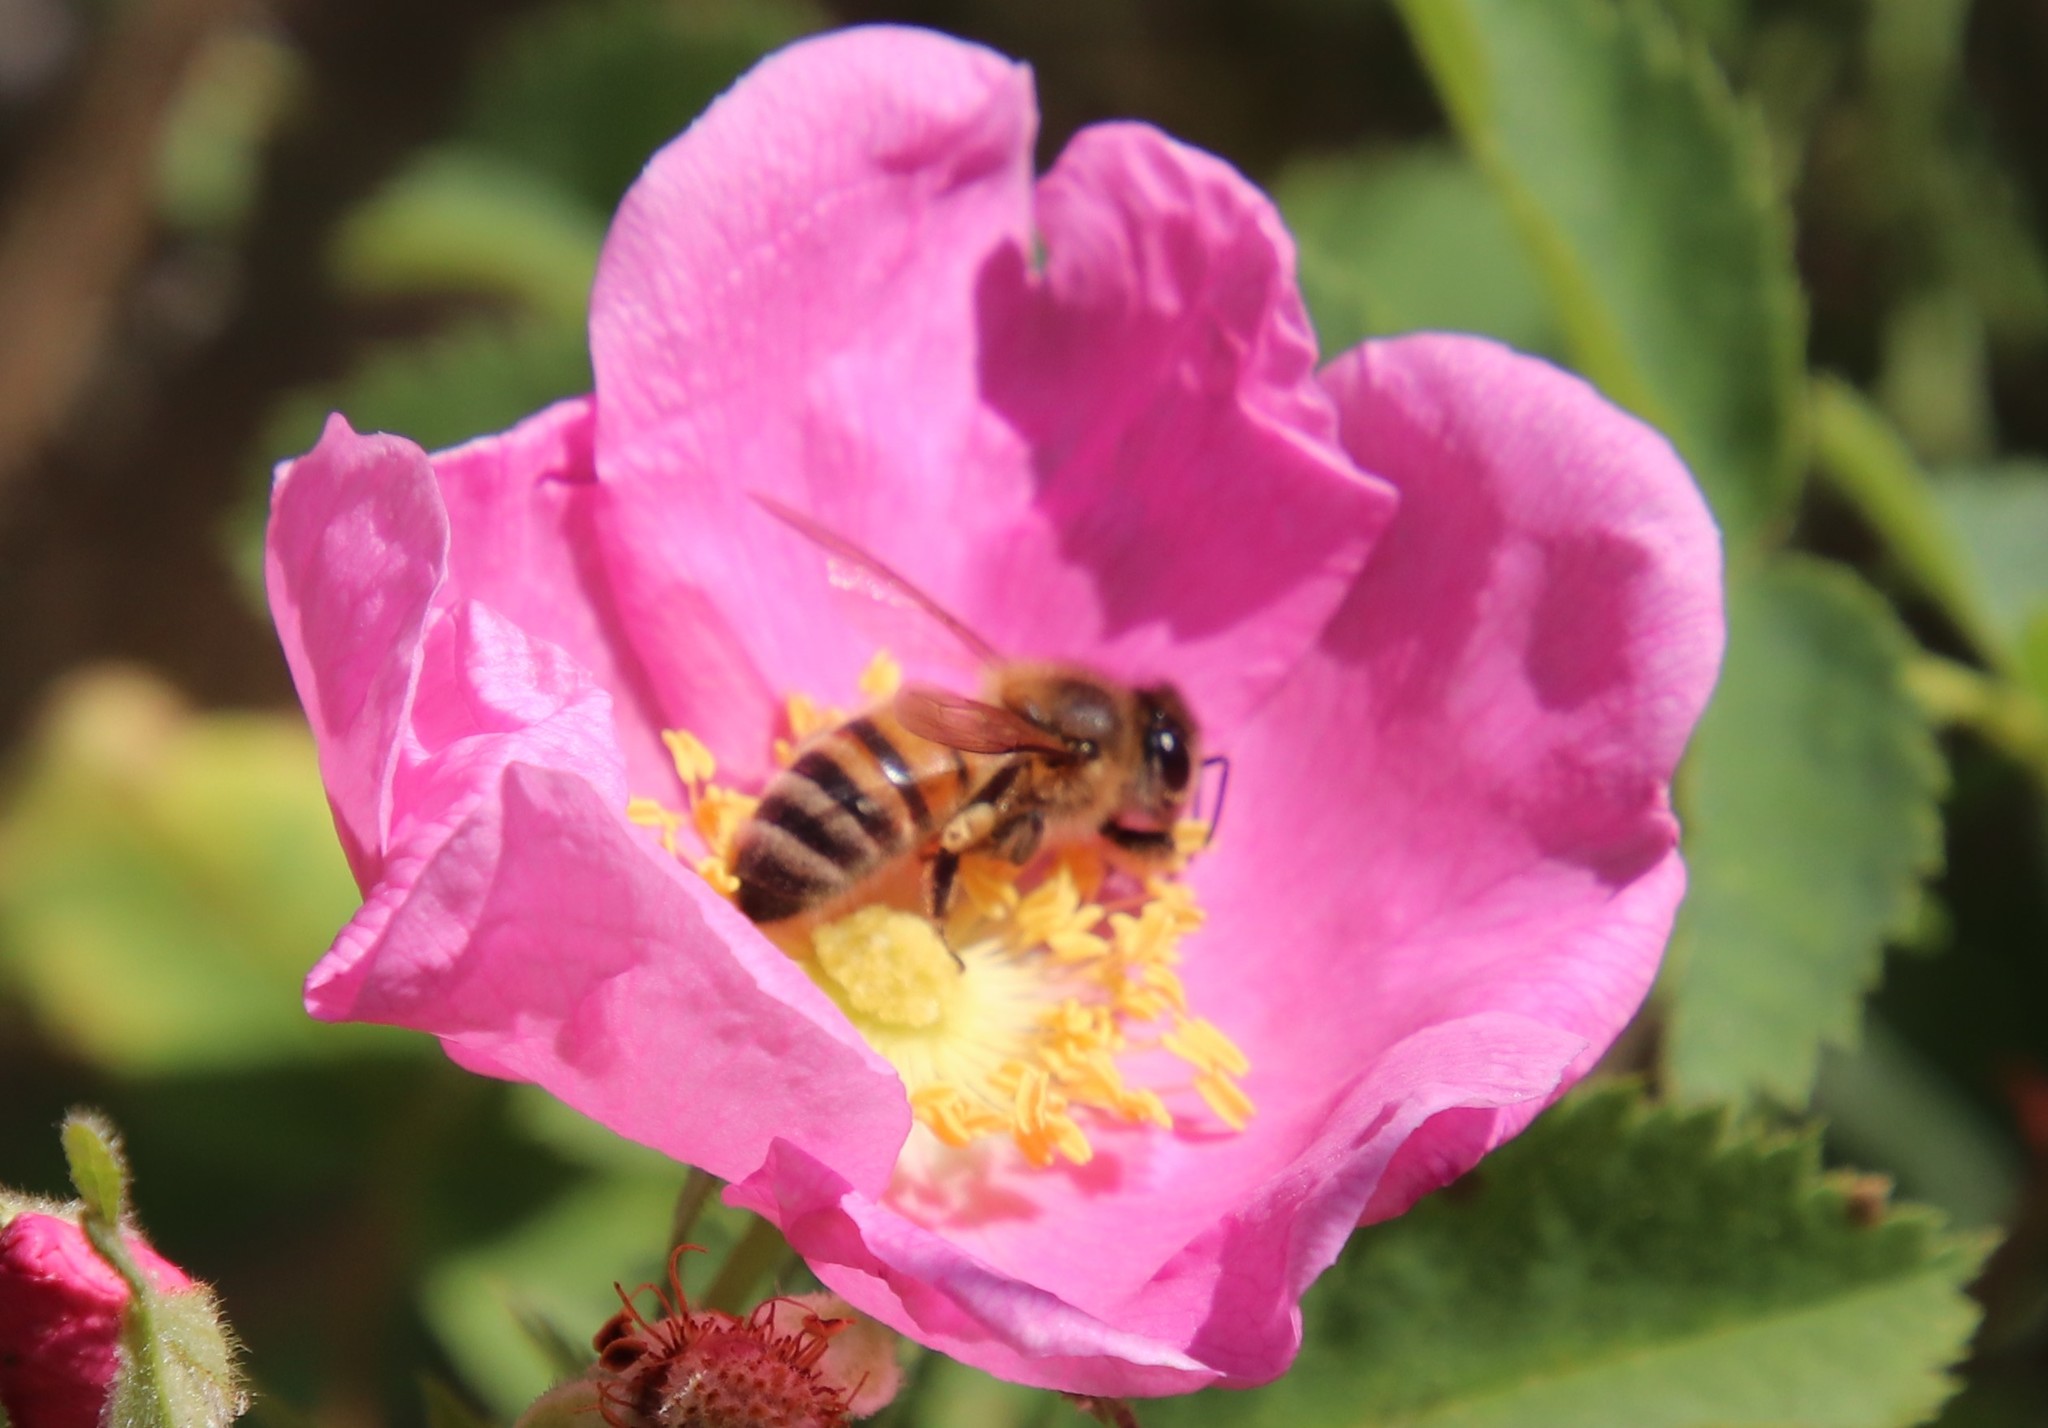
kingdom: Animalia
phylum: Arthropoda
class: Insecta
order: Hymenoptera
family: Apidae
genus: Apis
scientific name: Apis mellifera
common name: Honey bee
